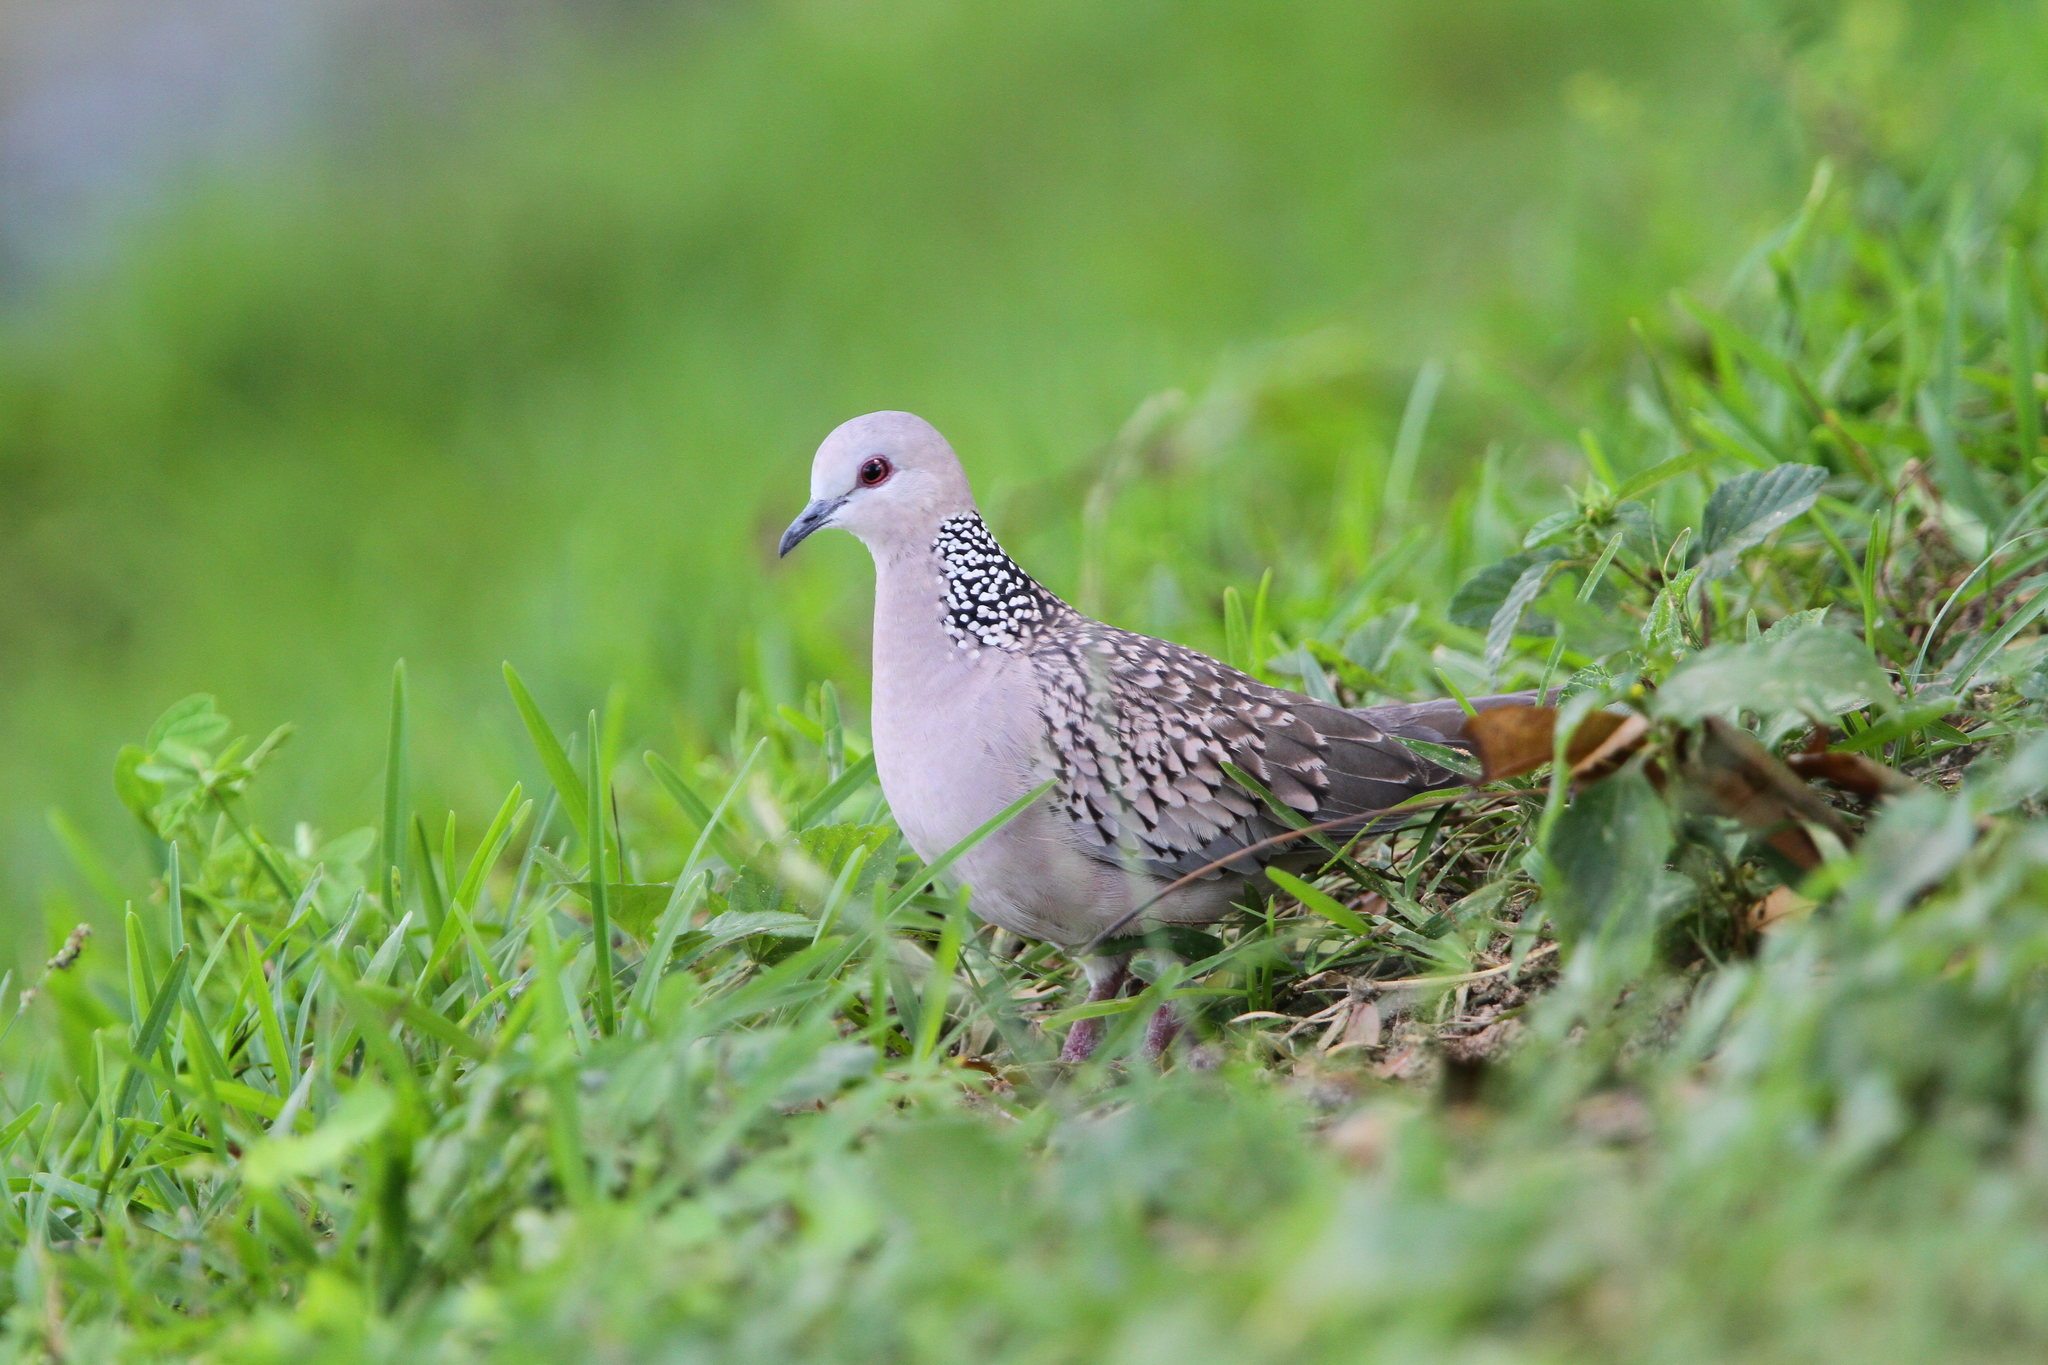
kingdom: Animalia
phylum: Chordata
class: Aves
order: Columbiformes
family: Columbidae
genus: Spilopelia
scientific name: Spilopelia chinensis
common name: Spotted dove
